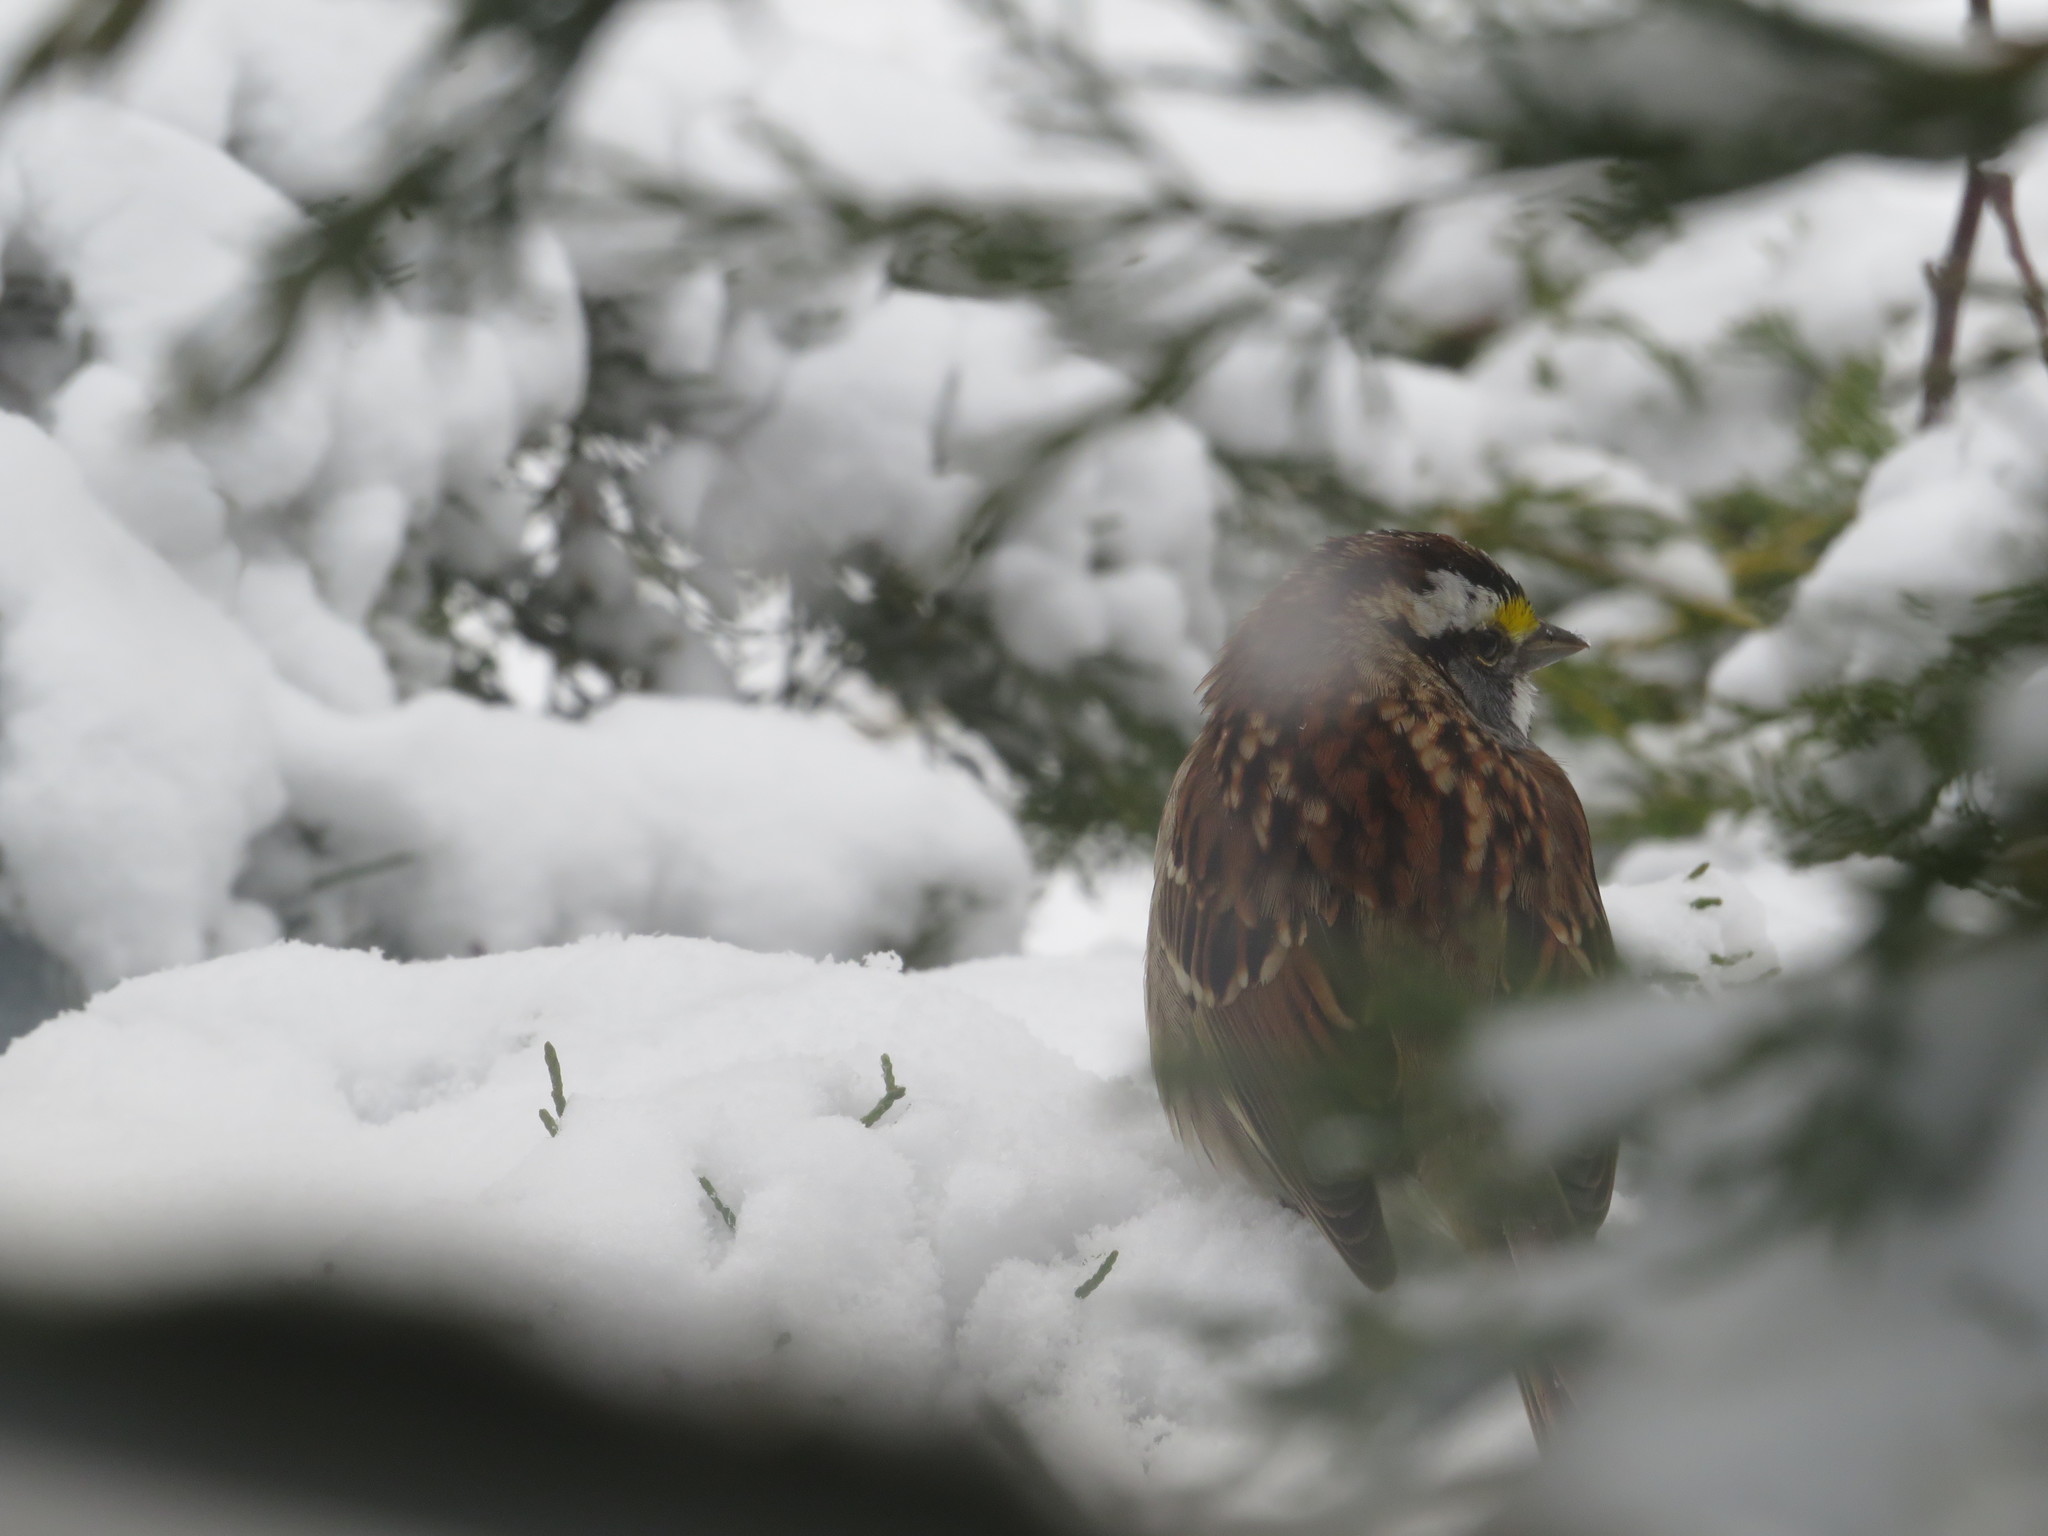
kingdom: Animalia
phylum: Chordata
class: Aves
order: Passeriformes
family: Passerellidae
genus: Zonotrichia
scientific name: Zonotrichia albicollis
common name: White-throated sparrow
